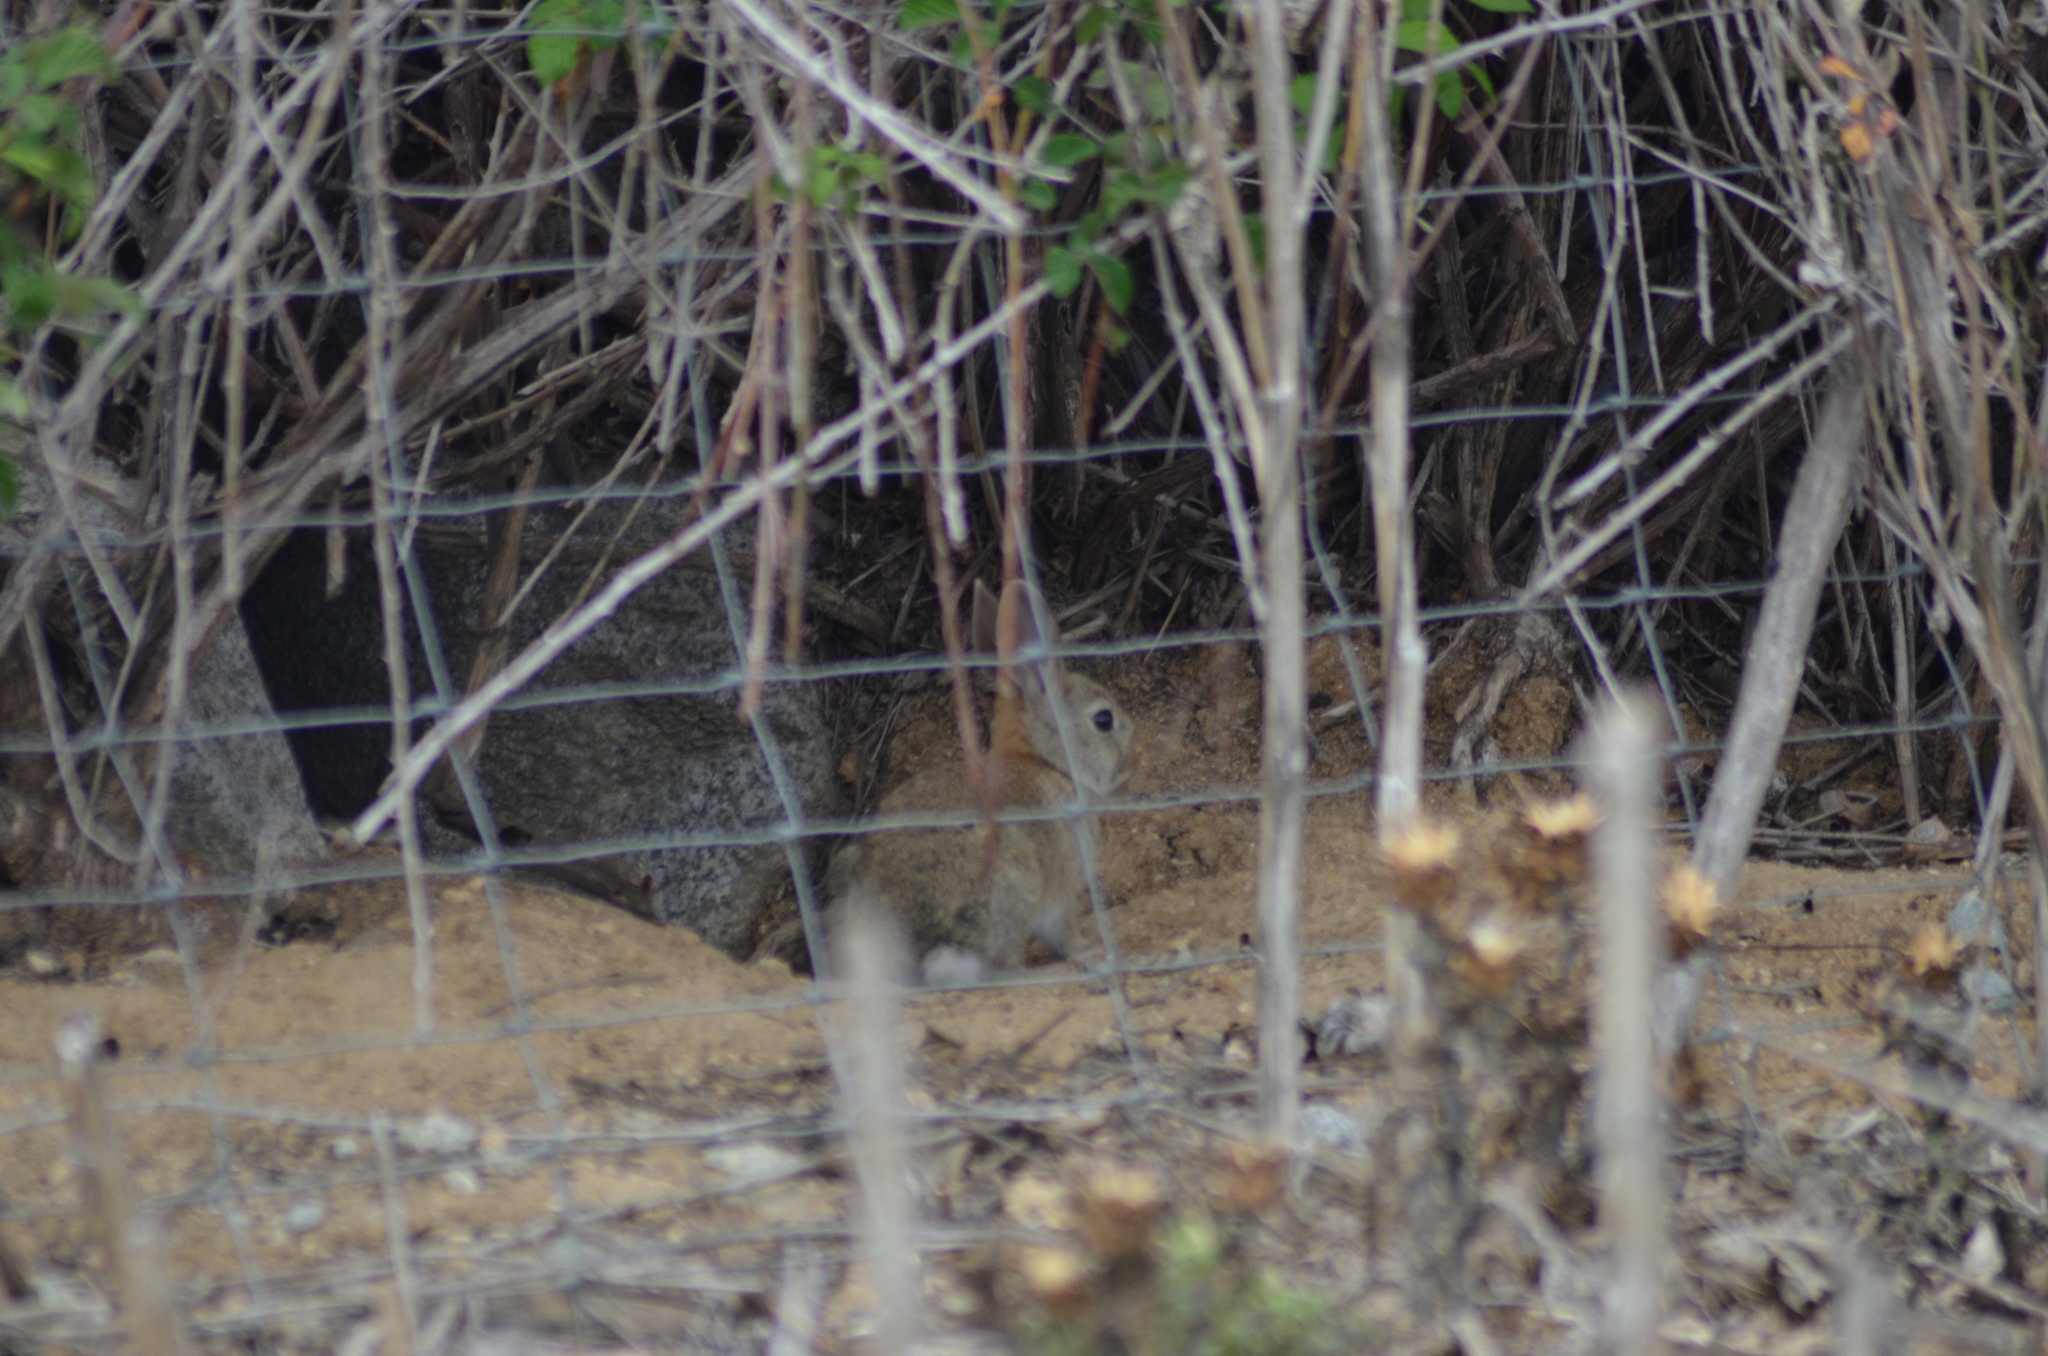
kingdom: Animalia
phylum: Chordata
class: Mammalia
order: Lagomorpha
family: Leporidae
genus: Oryctolagus
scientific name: Oryctolagus cuniculus
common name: European rabbit
